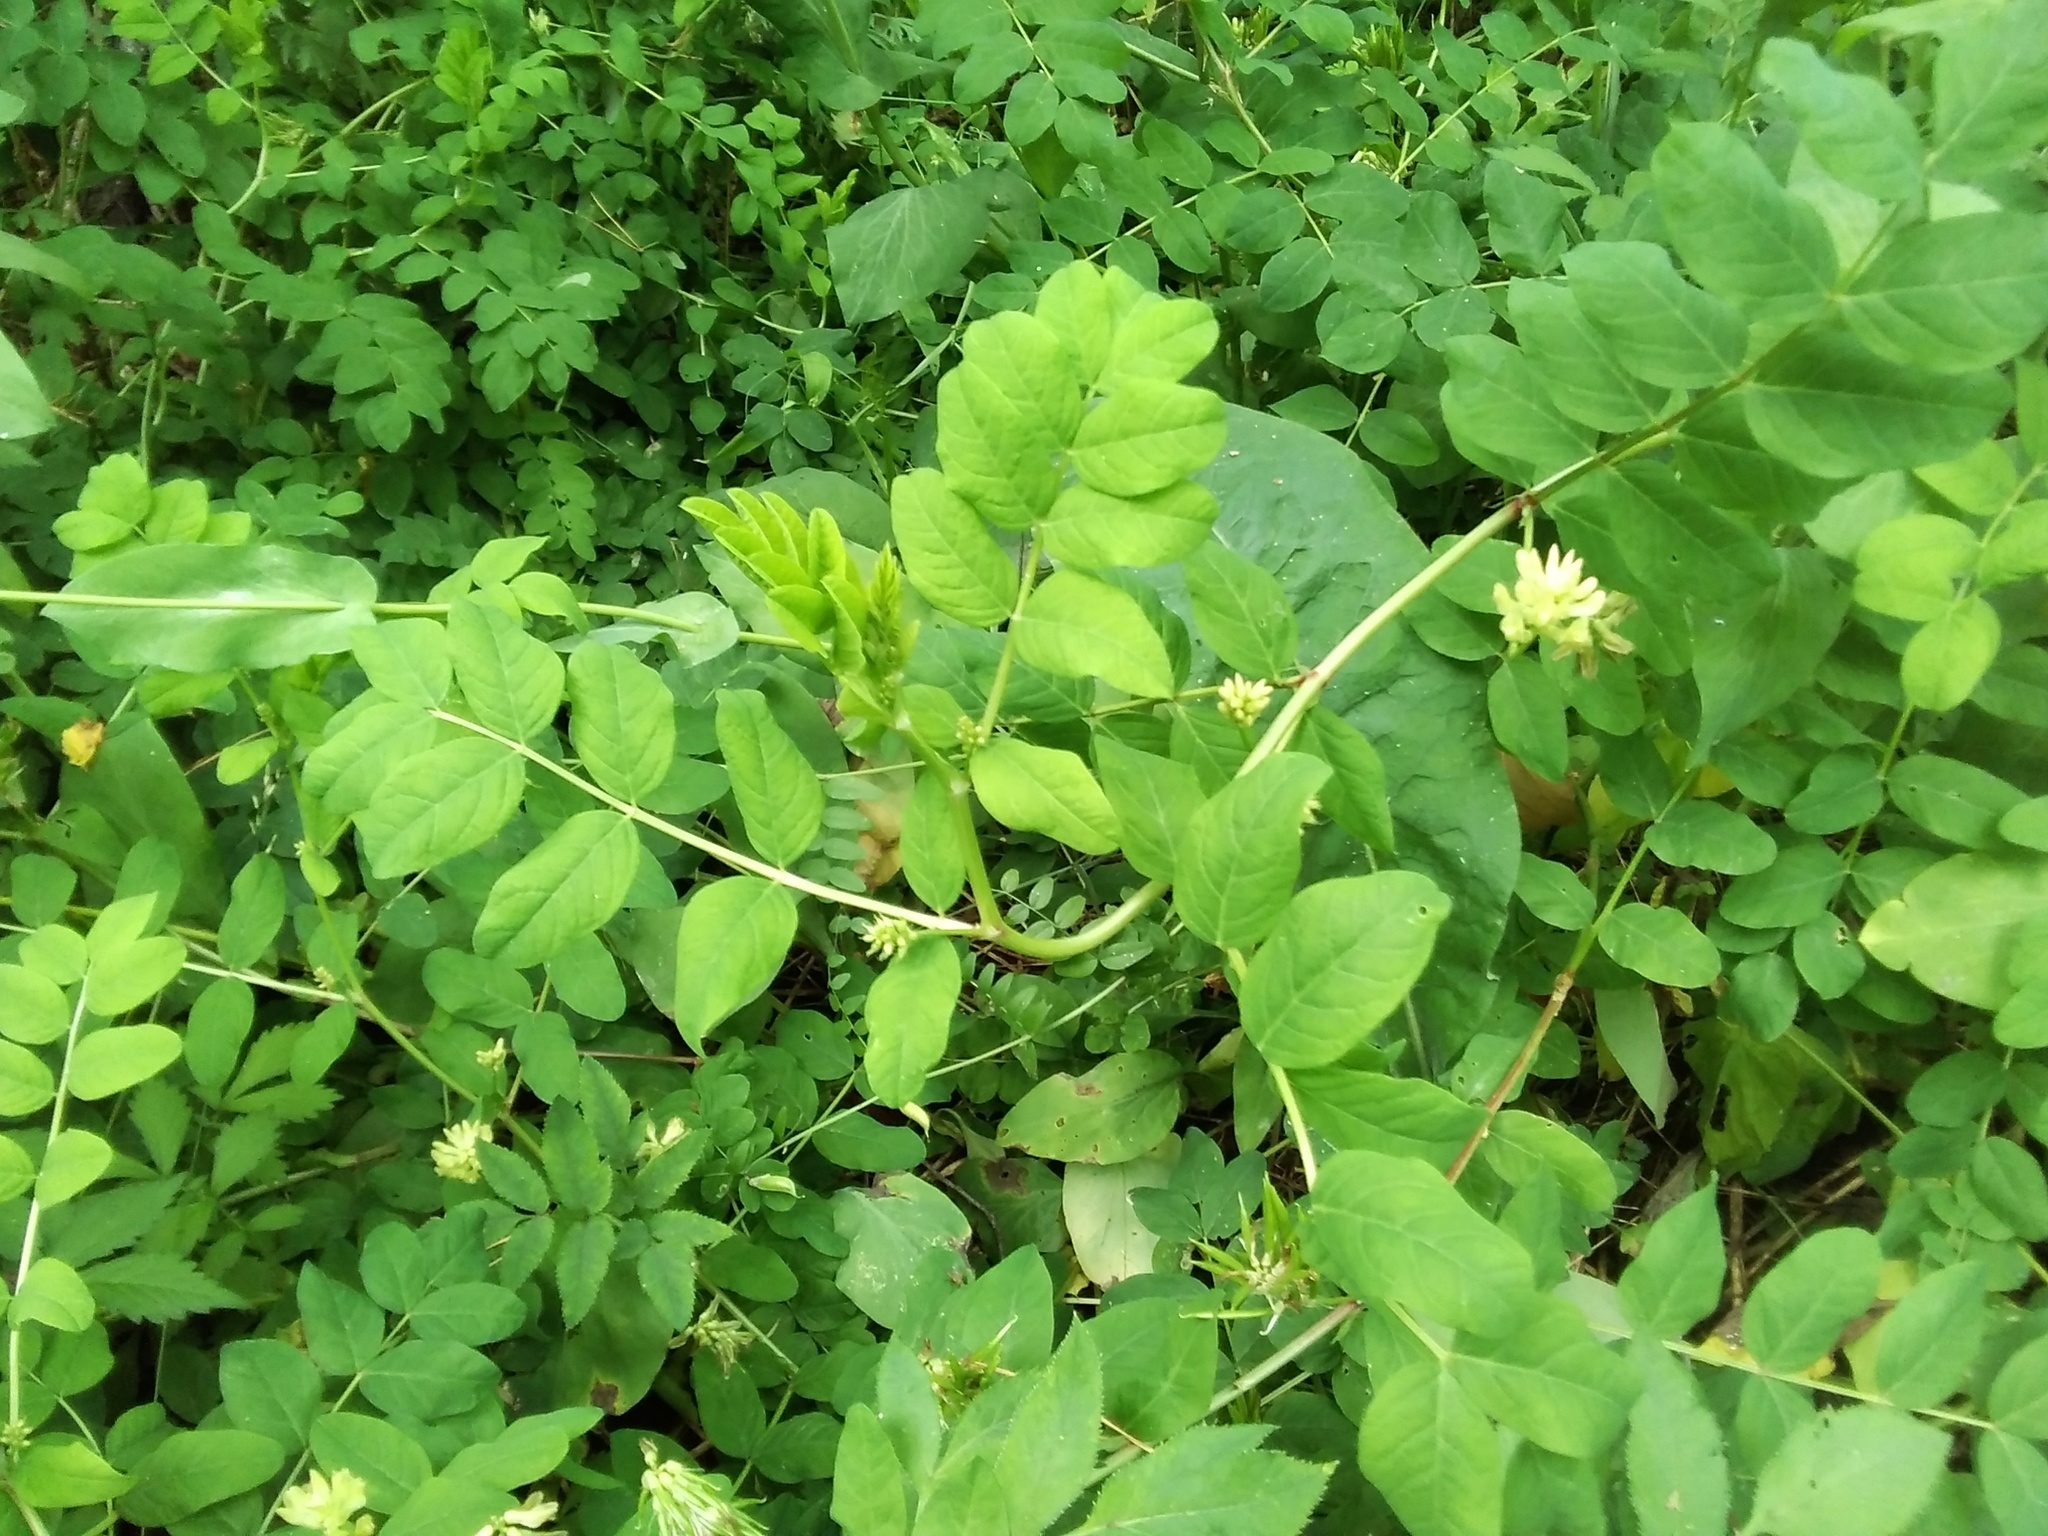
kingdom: Plantae
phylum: Tracheophyta
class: Magnoliopsida
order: Fabales
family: Fabaceae
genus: Astragalus
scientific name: Astragalus glycyphyllos
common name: Wild liquorice
